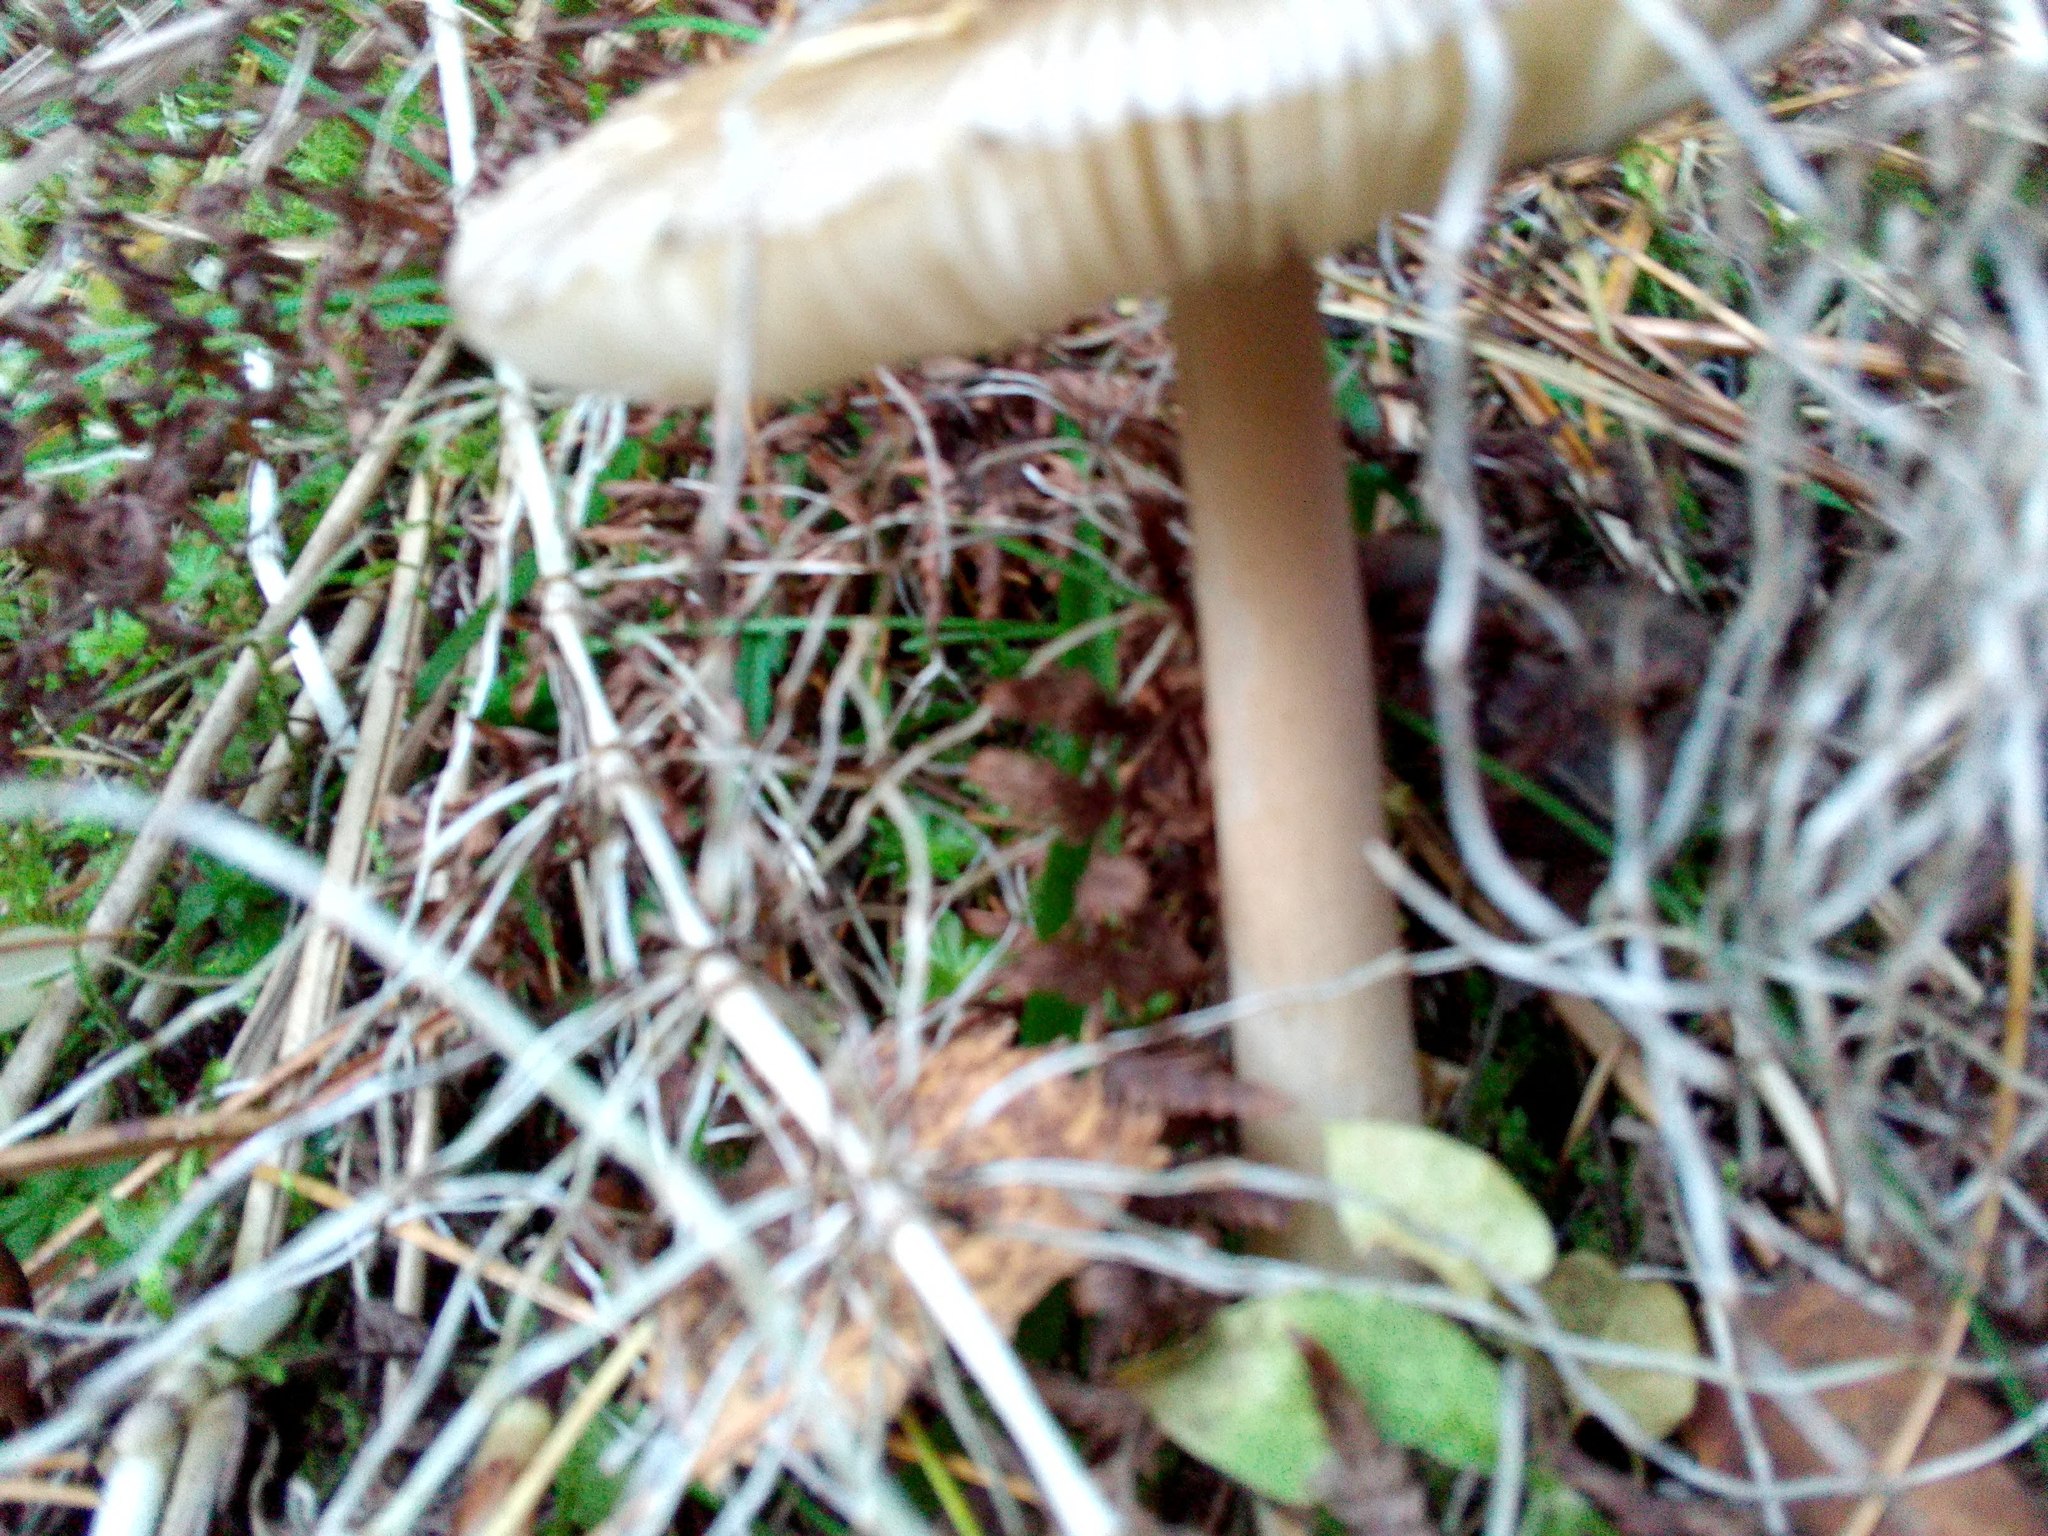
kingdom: Fungi
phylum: Basidiomycota
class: Agaricomycetes
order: Agaricales
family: Amanitaceae
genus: Amanita
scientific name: Amanita fulva
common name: Tawny grisette
